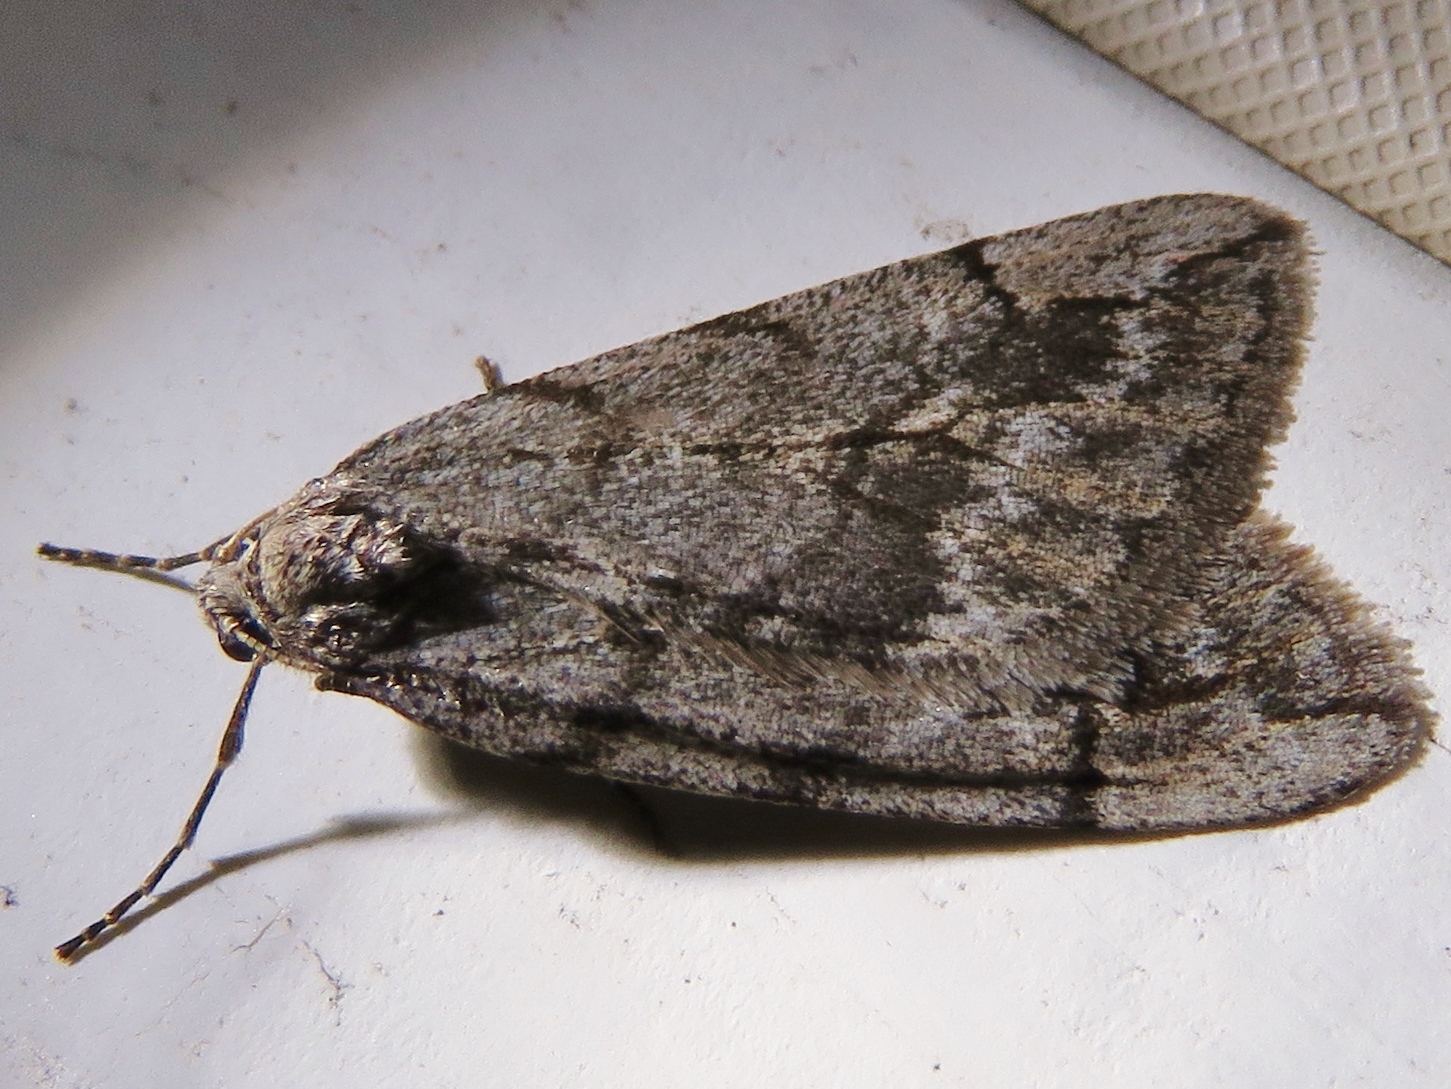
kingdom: Animalia
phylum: Arthropoda
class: Insecta
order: Lepidoptera
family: Geometridae
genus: Paleacrita
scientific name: Paleacrita vernata
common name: Spring cankerworm
